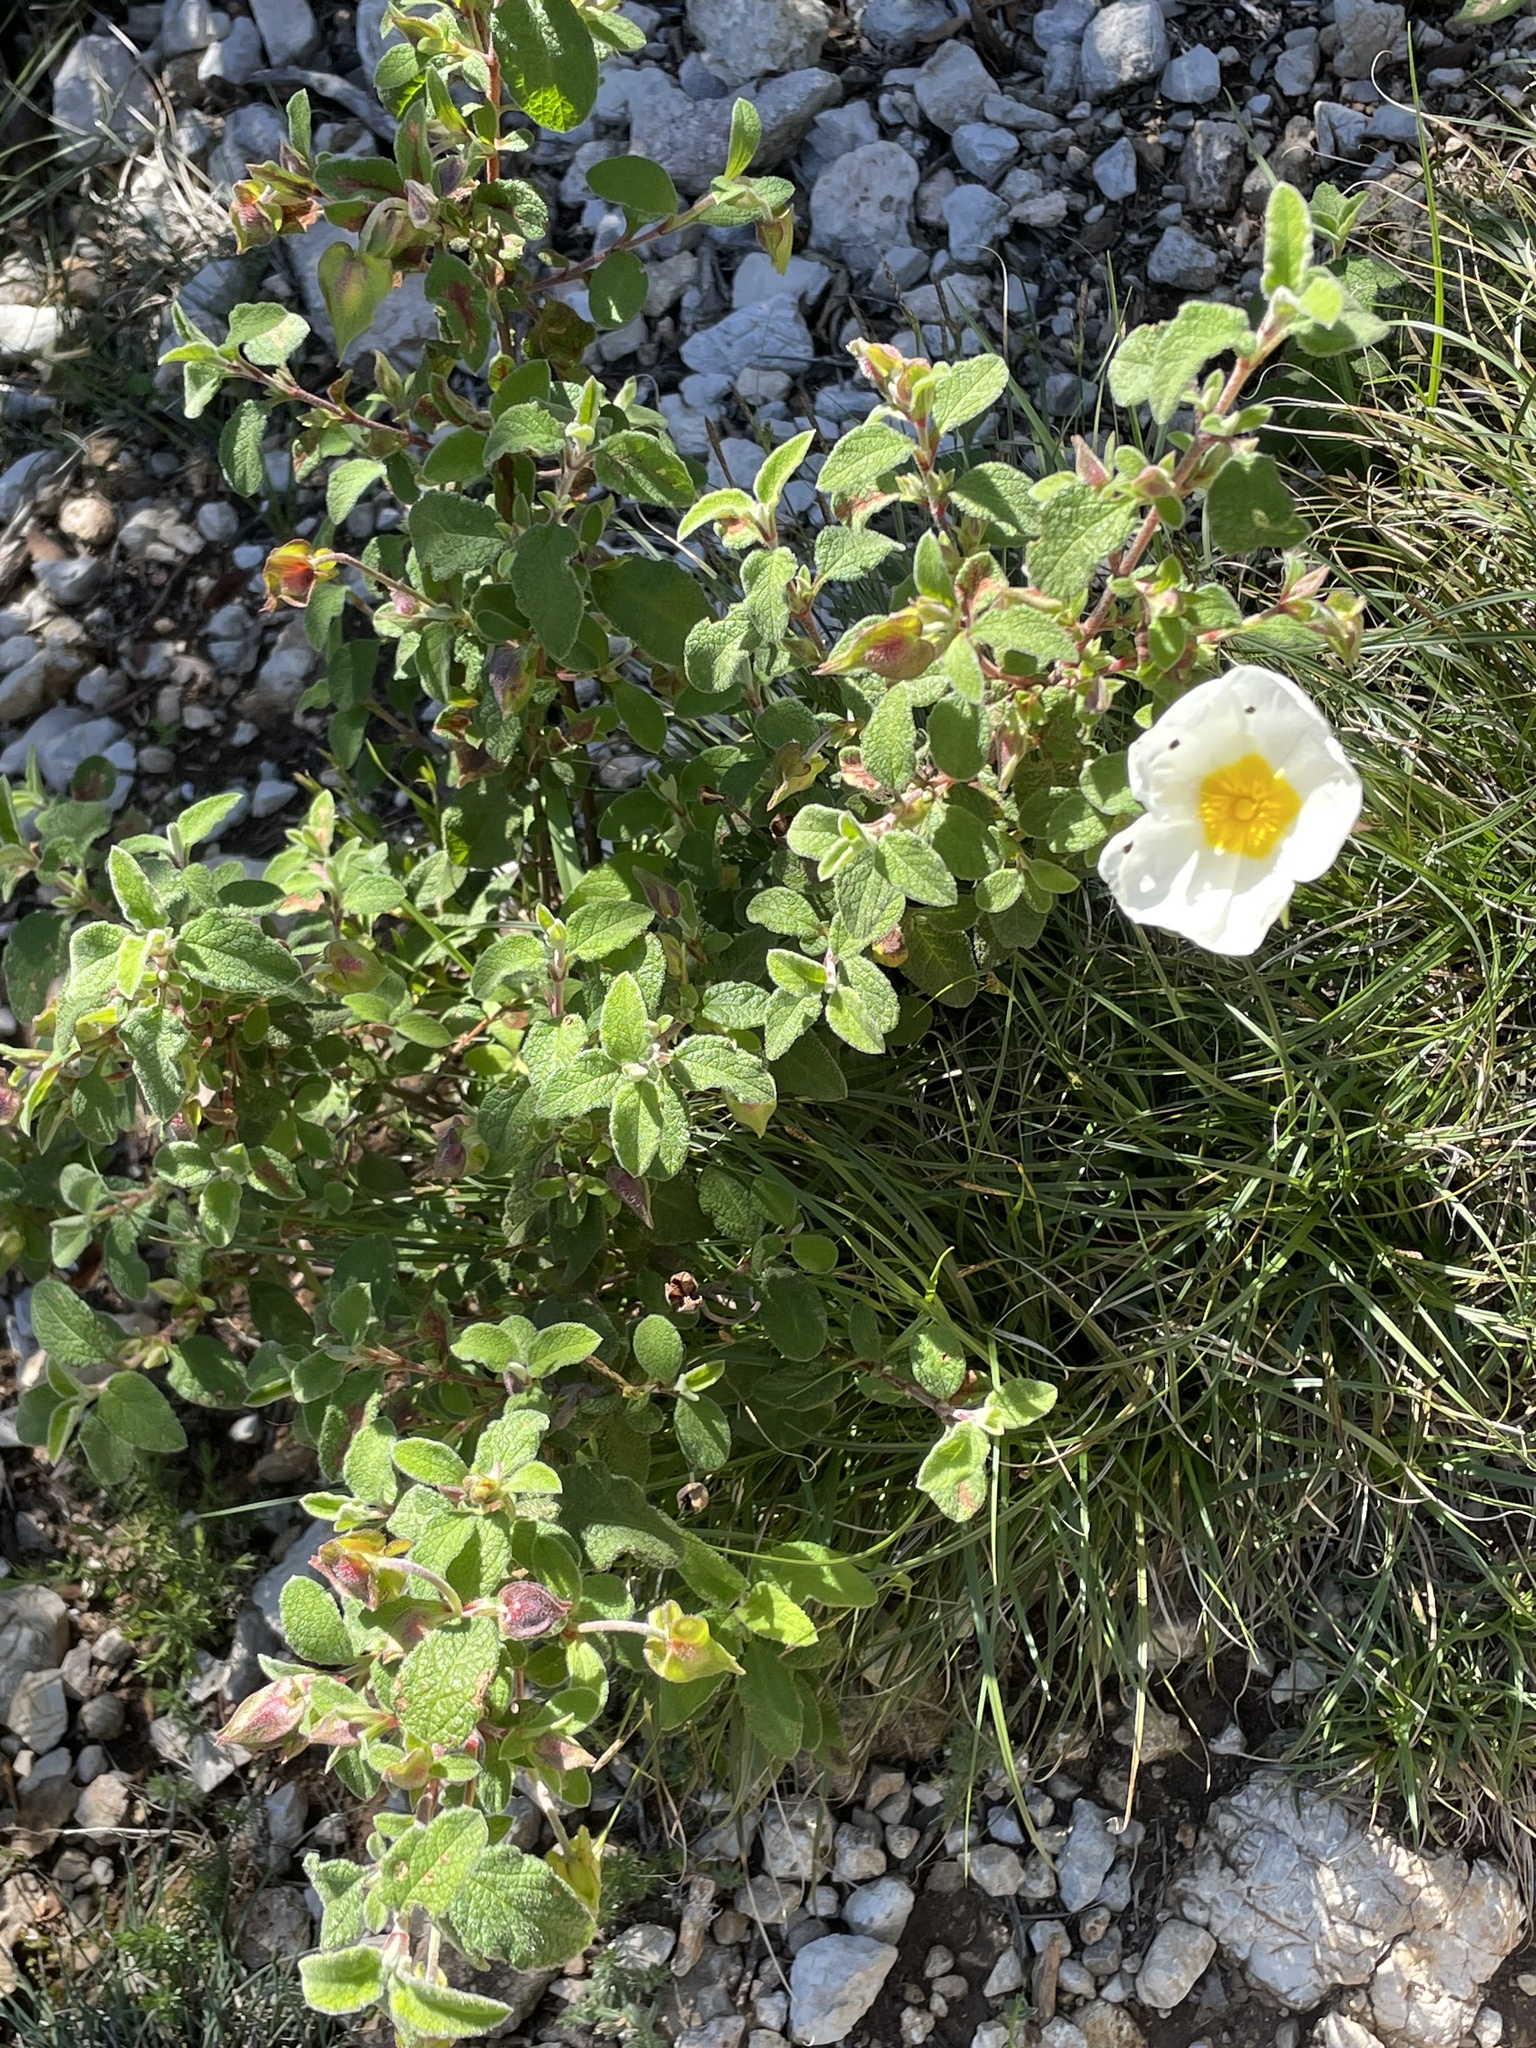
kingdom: Plantae
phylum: Tracheophyta
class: Magnoliopsida
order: Malvales
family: Cistaceae
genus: Cistus
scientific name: Cistus salviifolius
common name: Salvia cistus
